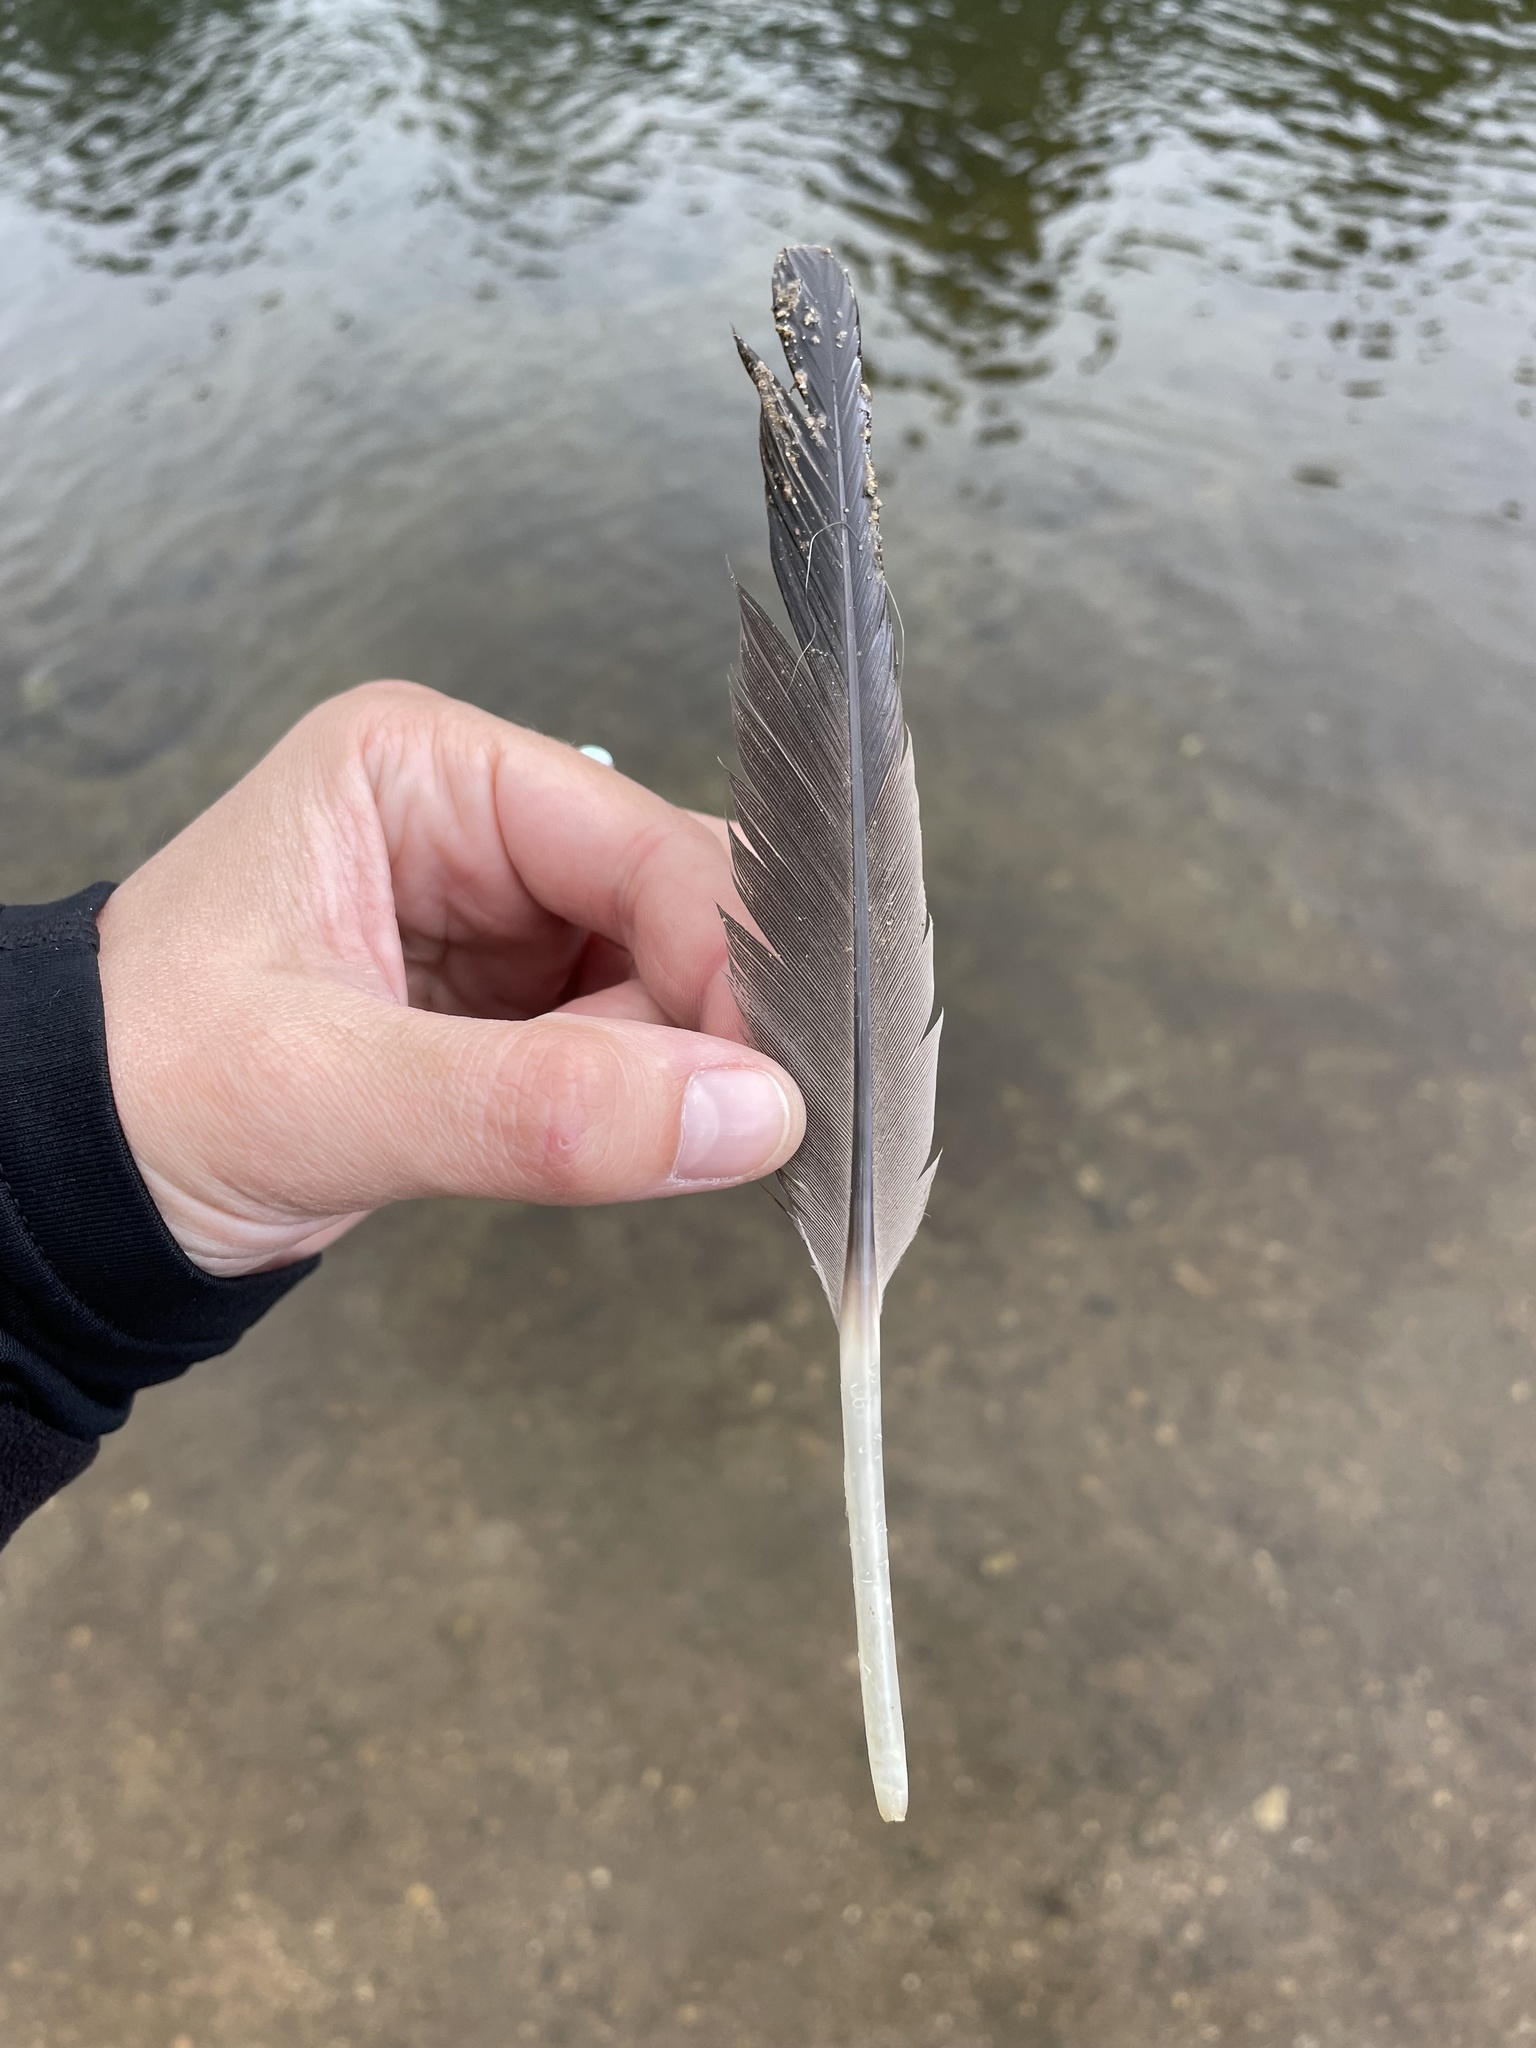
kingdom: Animalia
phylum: Chordata
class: Aves
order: Anseriformes
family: Anatidae
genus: Branta
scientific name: Branta canadensis
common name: Canada goose
